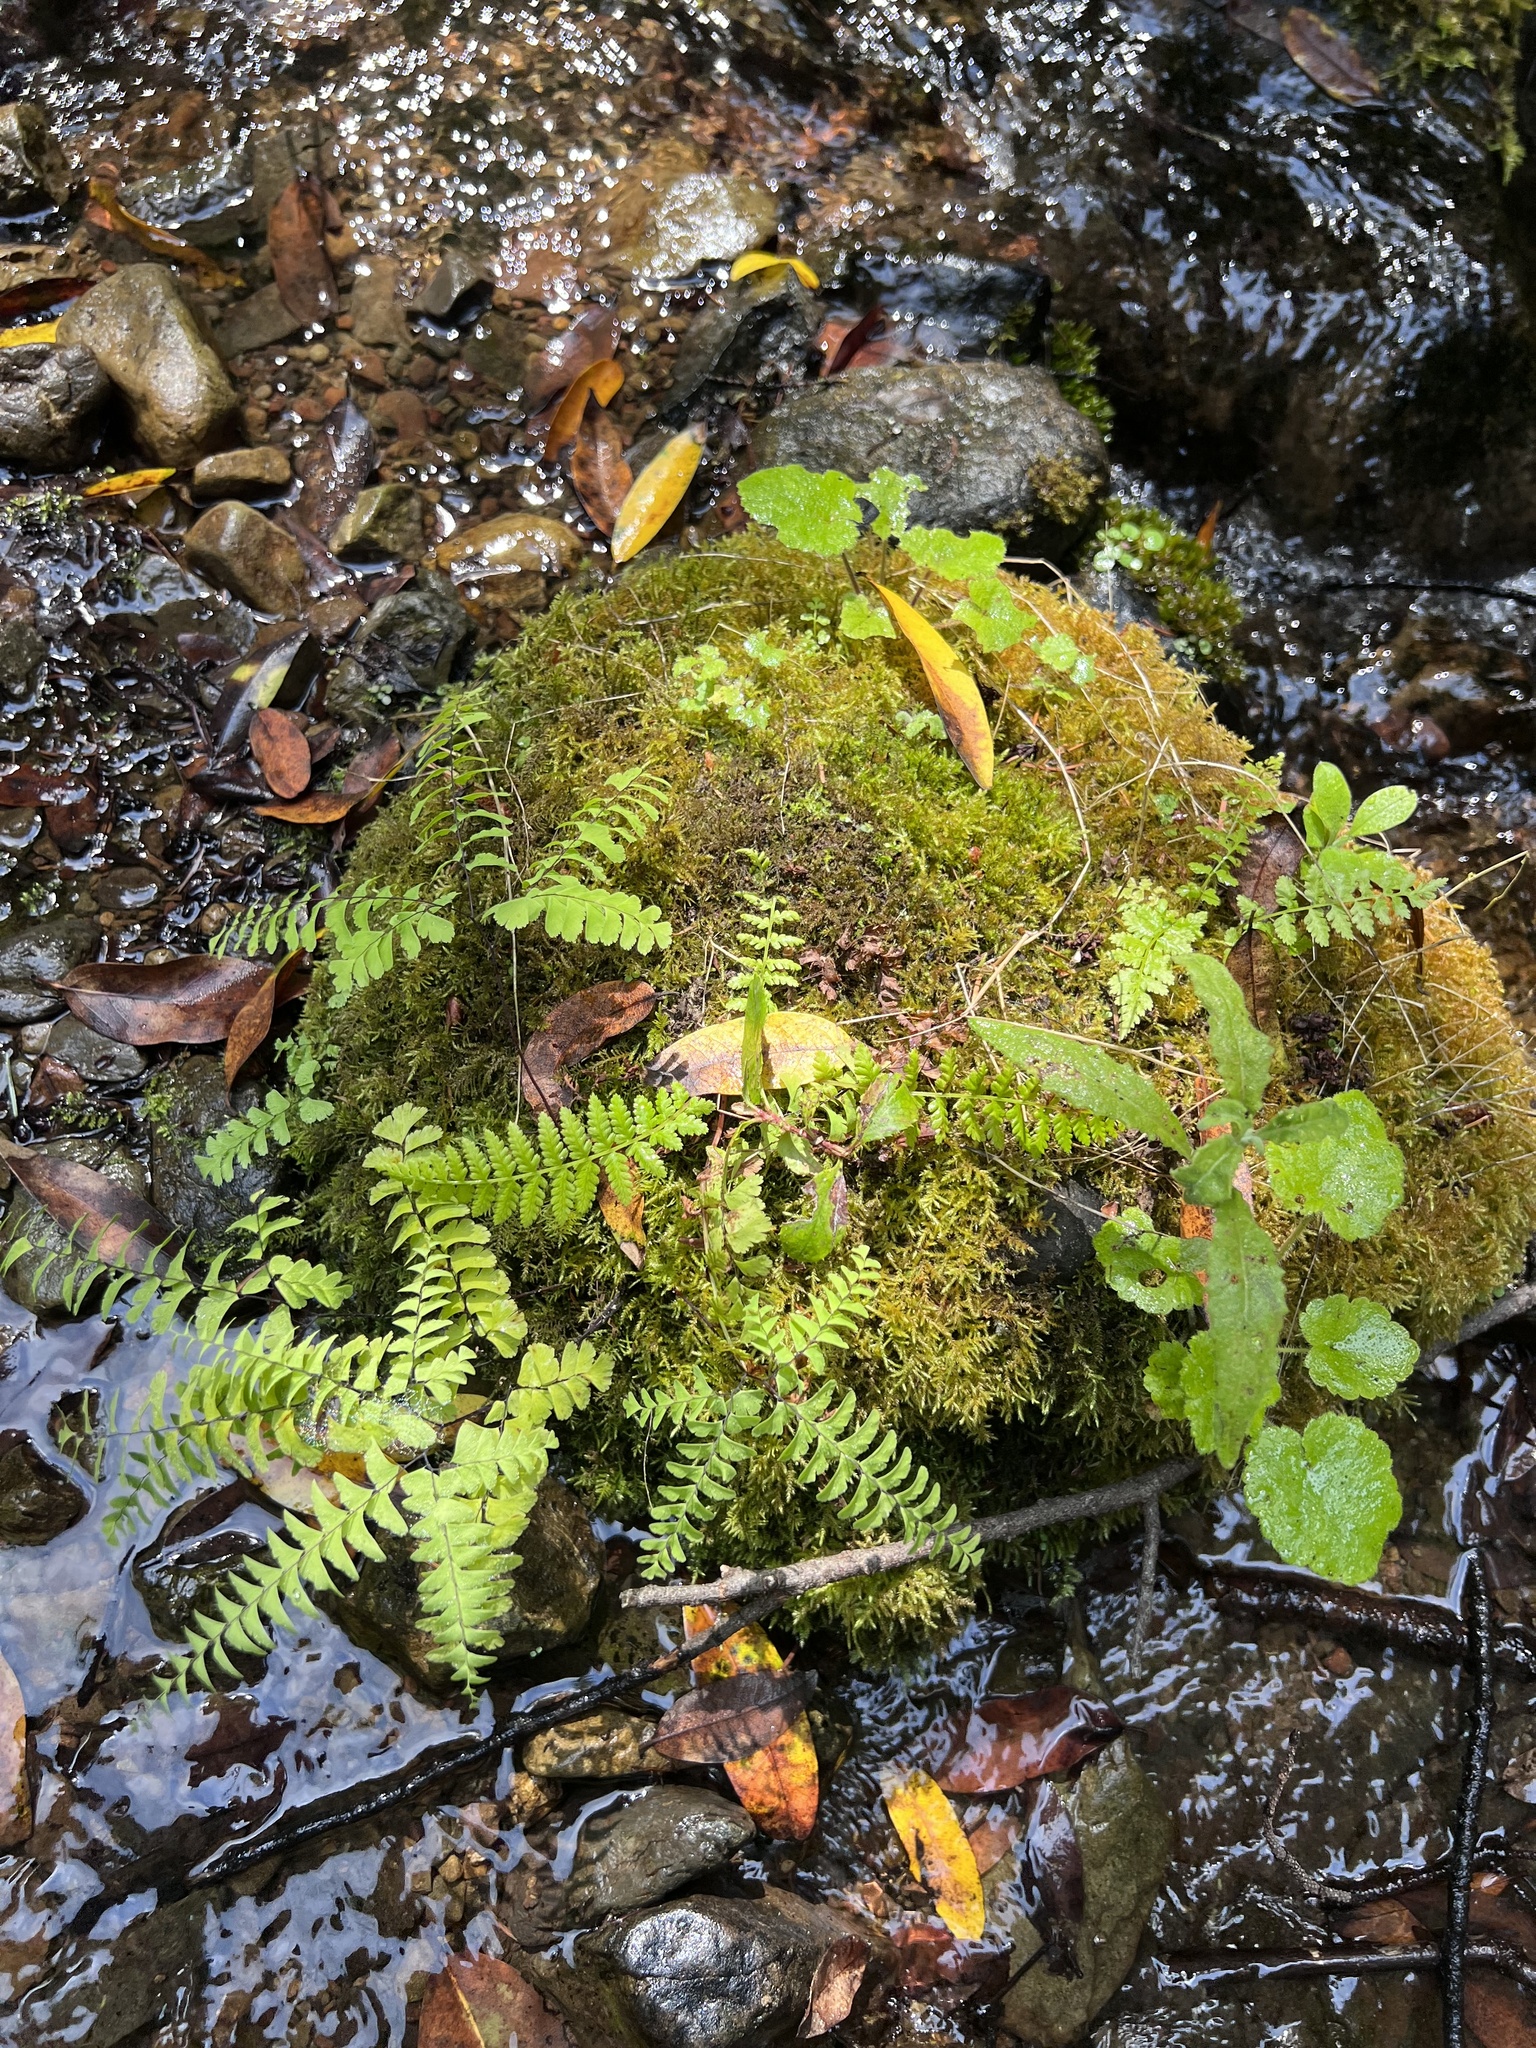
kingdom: Plantae
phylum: Tracheophyta
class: Polypodiopsida
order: Polypodiales
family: Pteridaceae
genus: Adiantum
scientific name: Adiantum aleuticum
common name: Aleutian maidenhair fern
